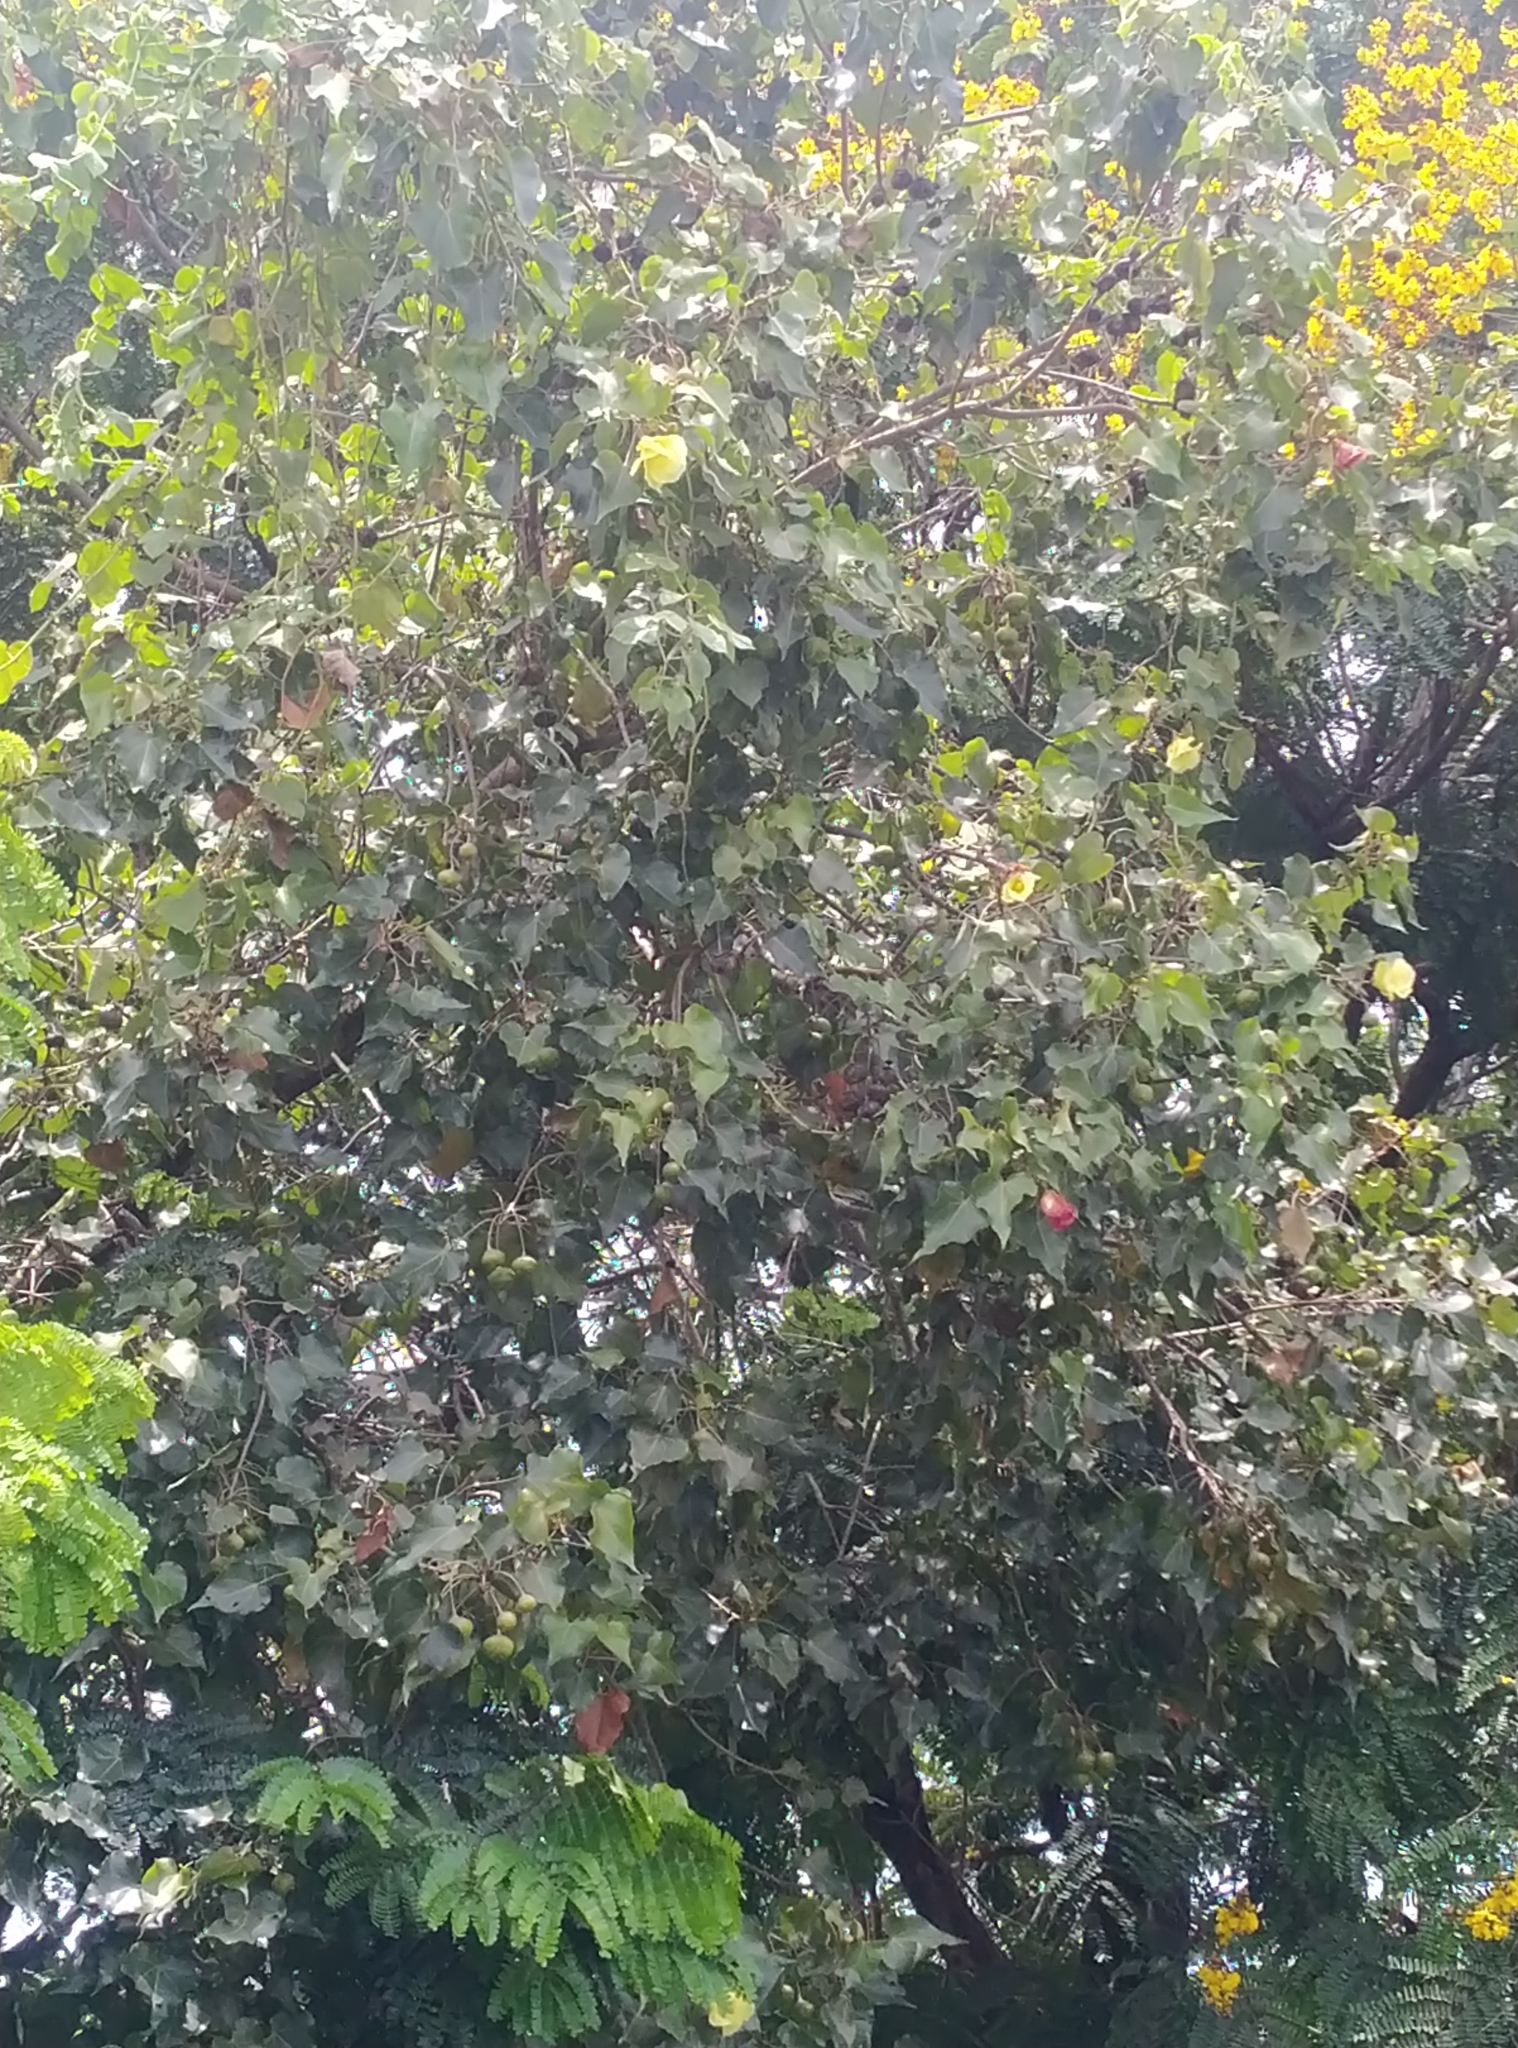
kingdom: Plantae
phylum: Tracheophyta
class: Magnoliopsida
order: Malvales
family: Malvaceae
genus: Thespesia
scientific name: Thespesia populnea
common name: Seaside mahoe
